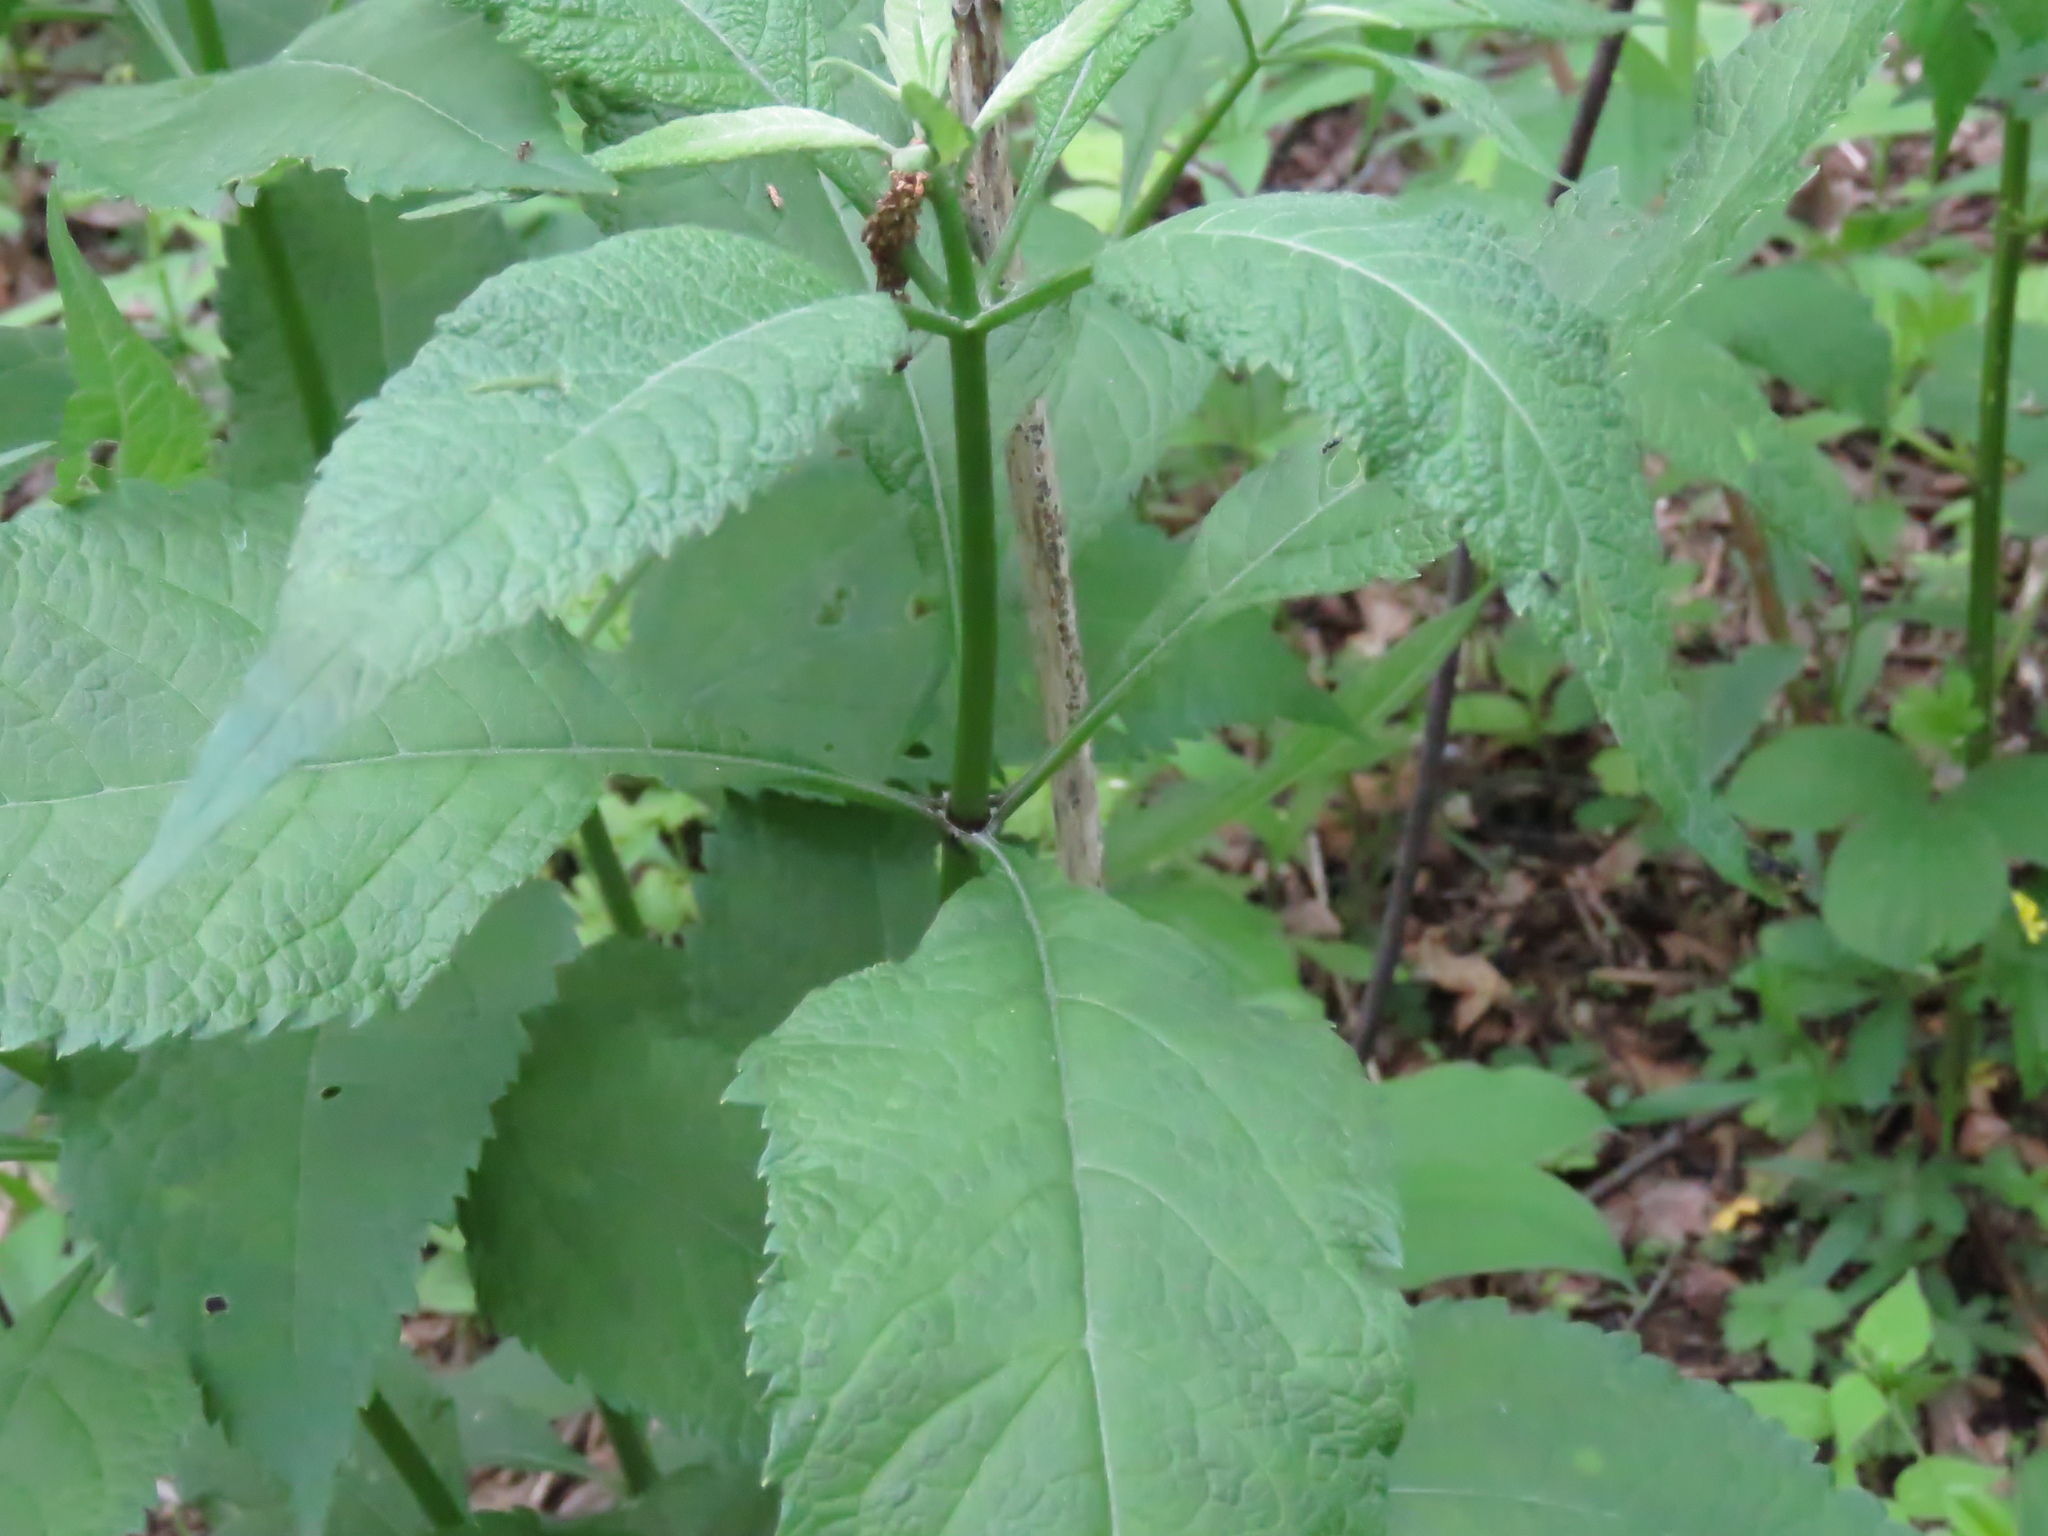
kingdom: Plantae
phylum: Tracheophyta
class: Magnoliopsida
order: Asterales
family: Asteraceae
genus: Eutrochium
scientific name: Eutrochium purpureum
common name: Gravelroot
